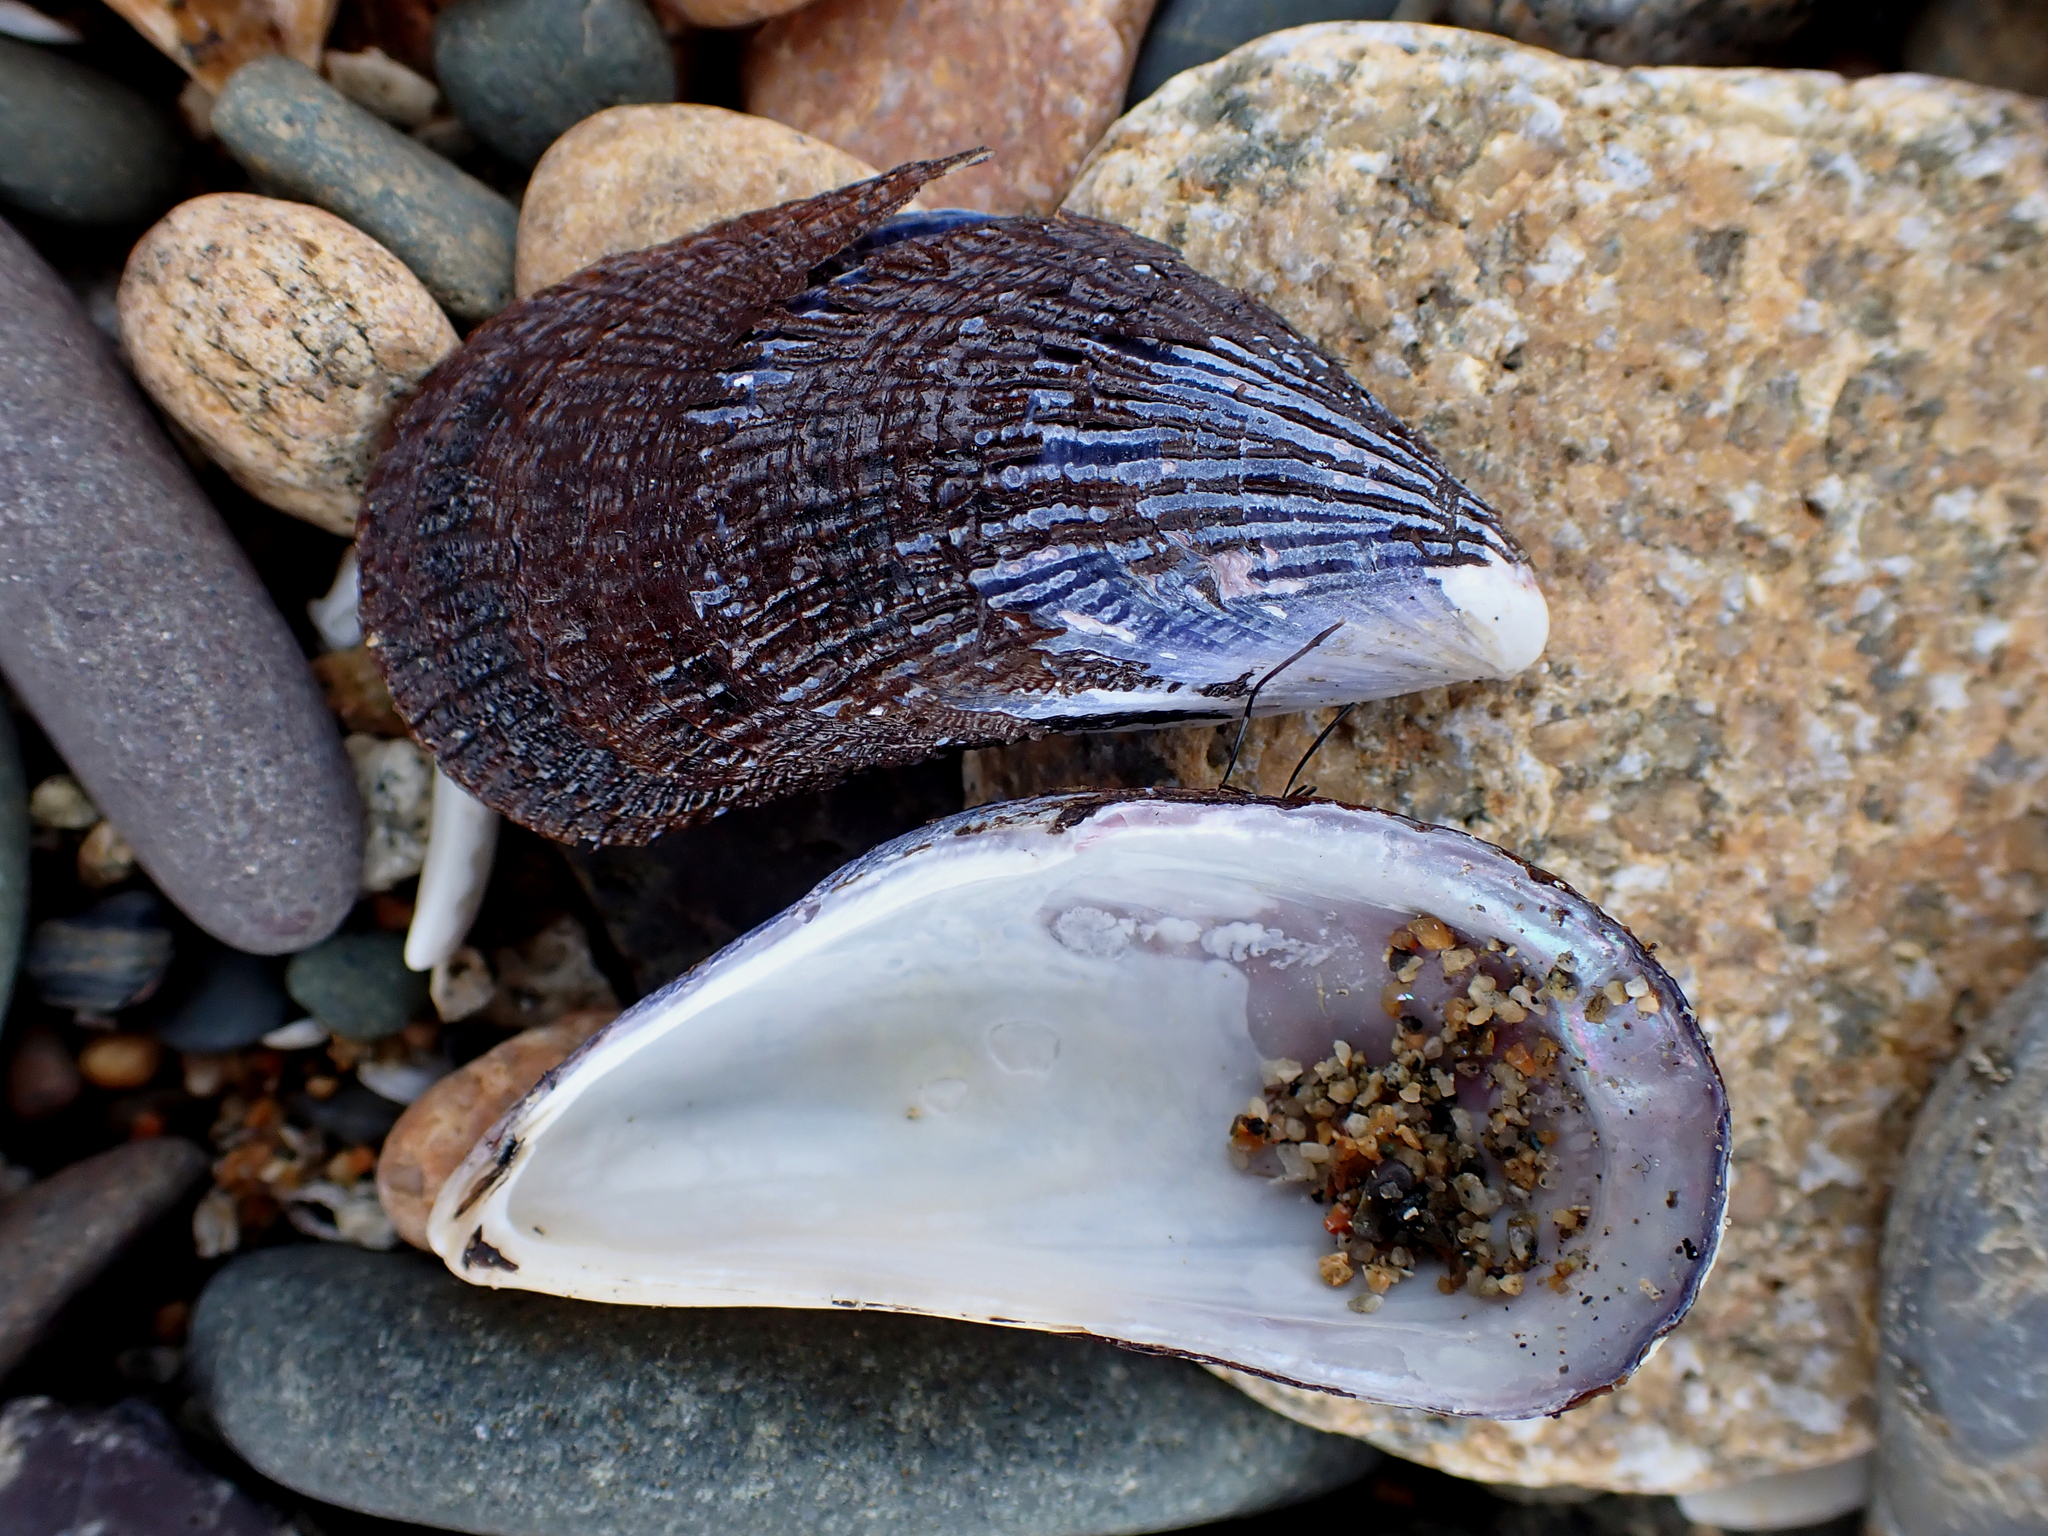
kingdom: Animalia
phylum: Mollusca
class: Bivalvia
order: Mytilida
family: Mytilidae
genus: Aulacomya
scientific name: Aulacomya maoriana
